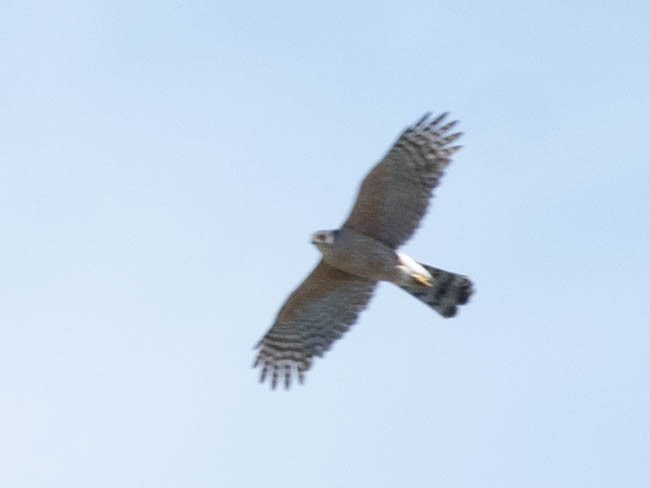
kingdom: Animalia
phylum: Chordata
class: Aves
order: Accipitriformes
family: Accipitridae
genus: Accipiter
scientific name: Accipiter cooperii
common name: Cooper's hawk
